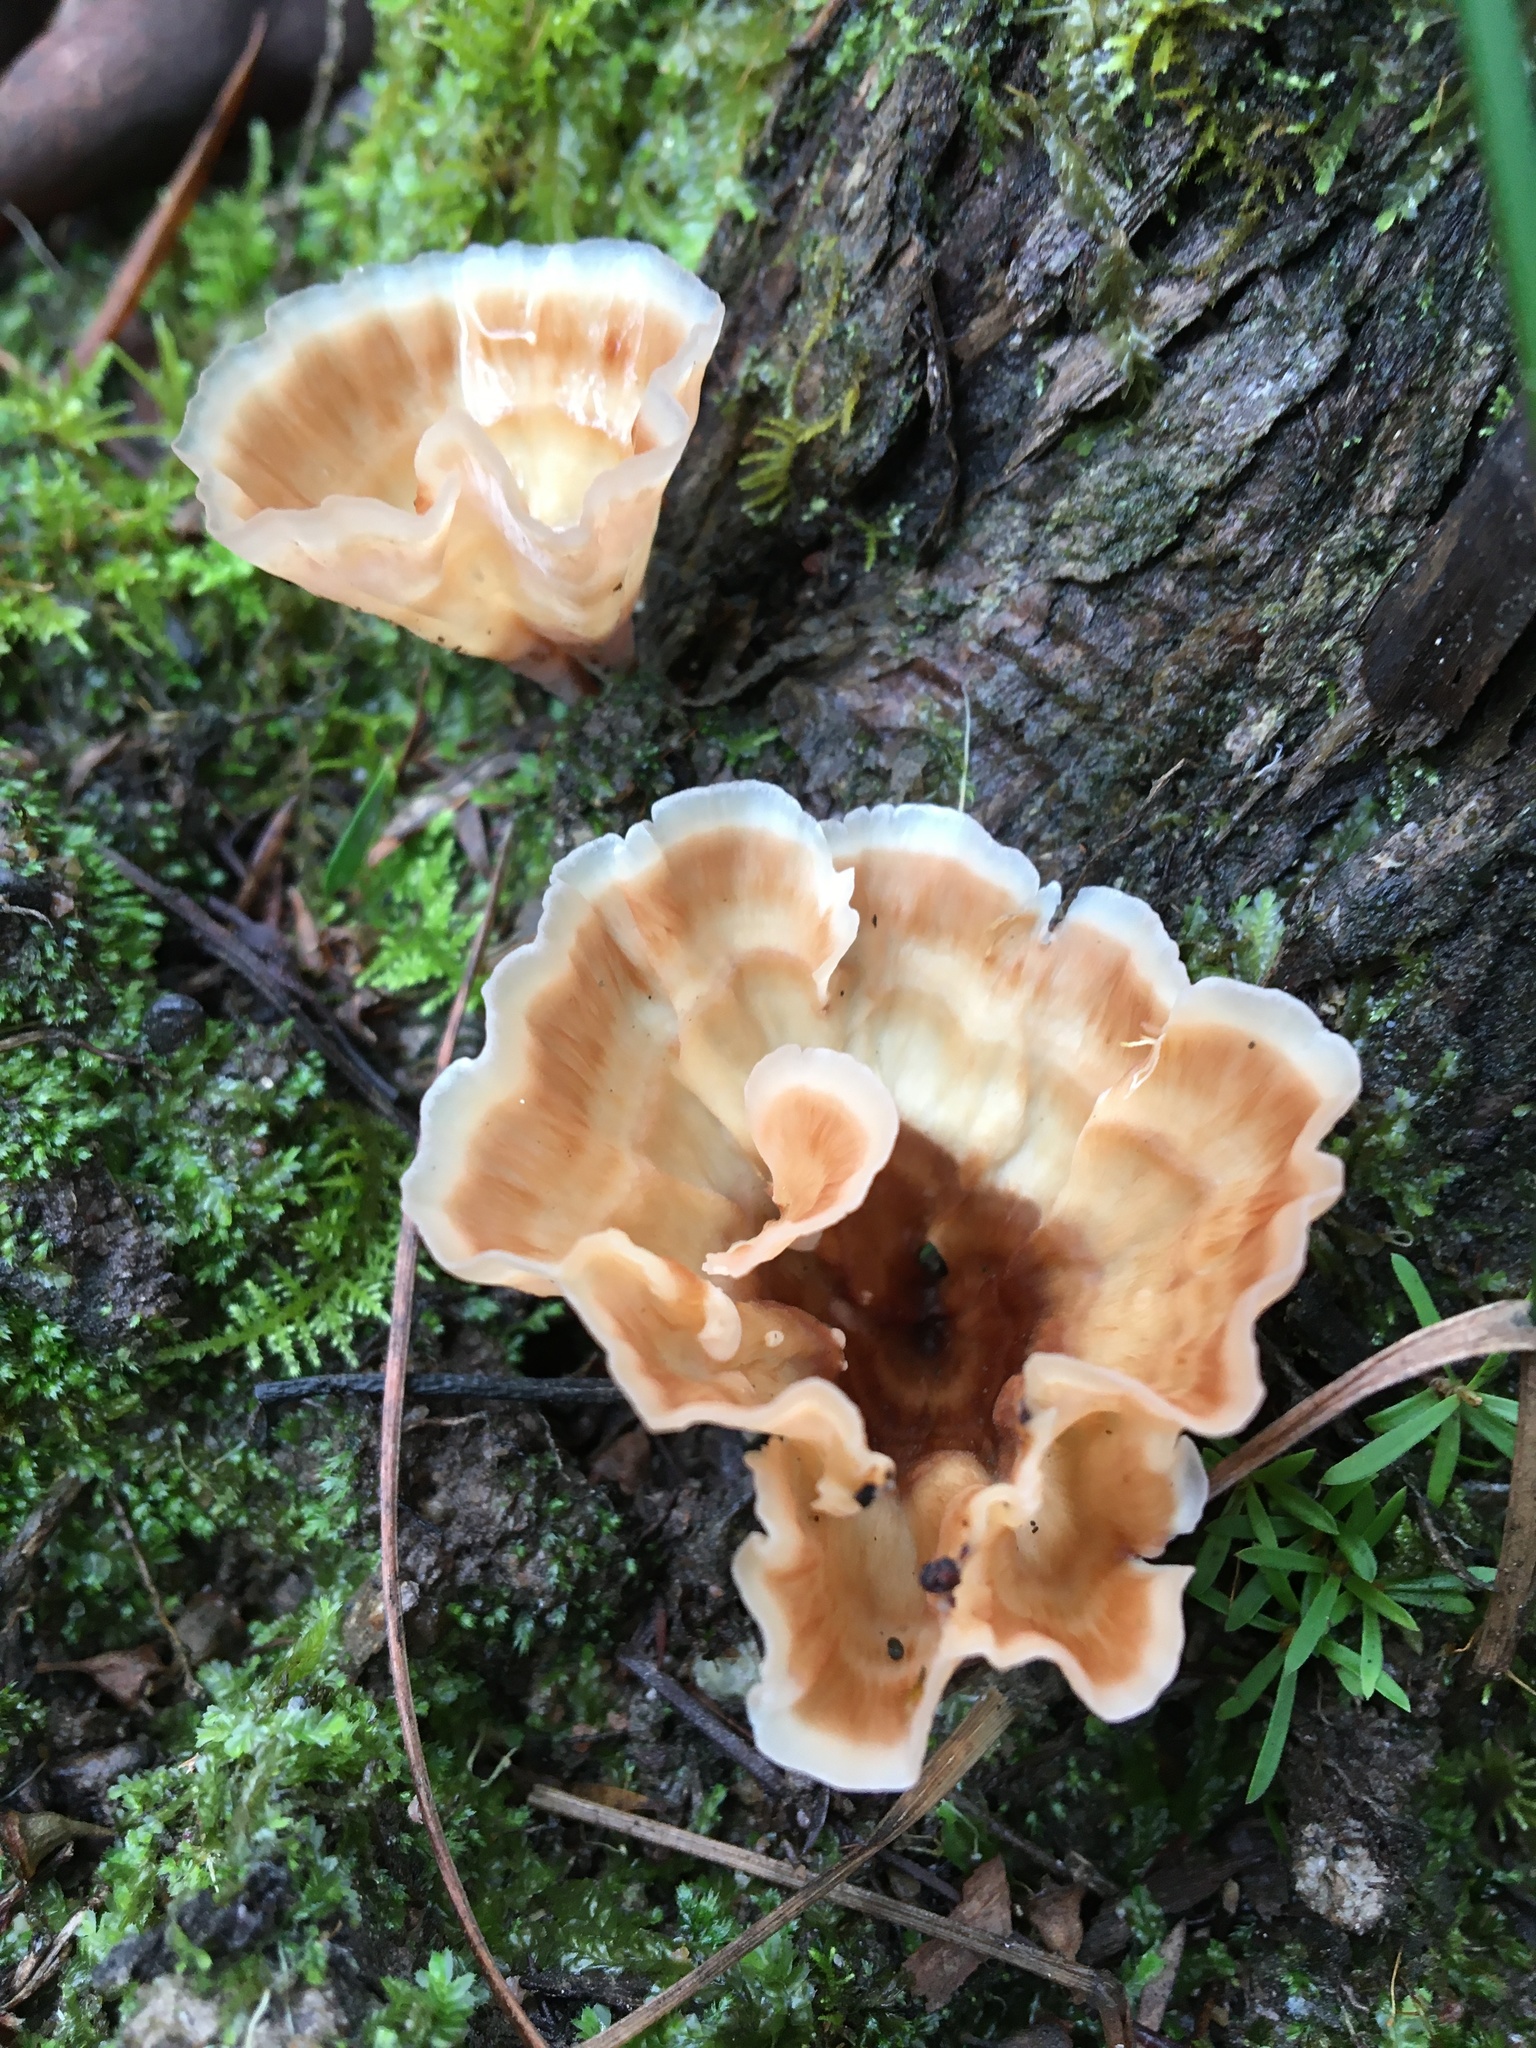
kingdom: Fungi
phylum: Basidiomycota
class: Agaricomycetes
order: Polyporales
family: Podoscyphaceae
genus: Podoscypha
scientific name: Podoscypha petalodes
